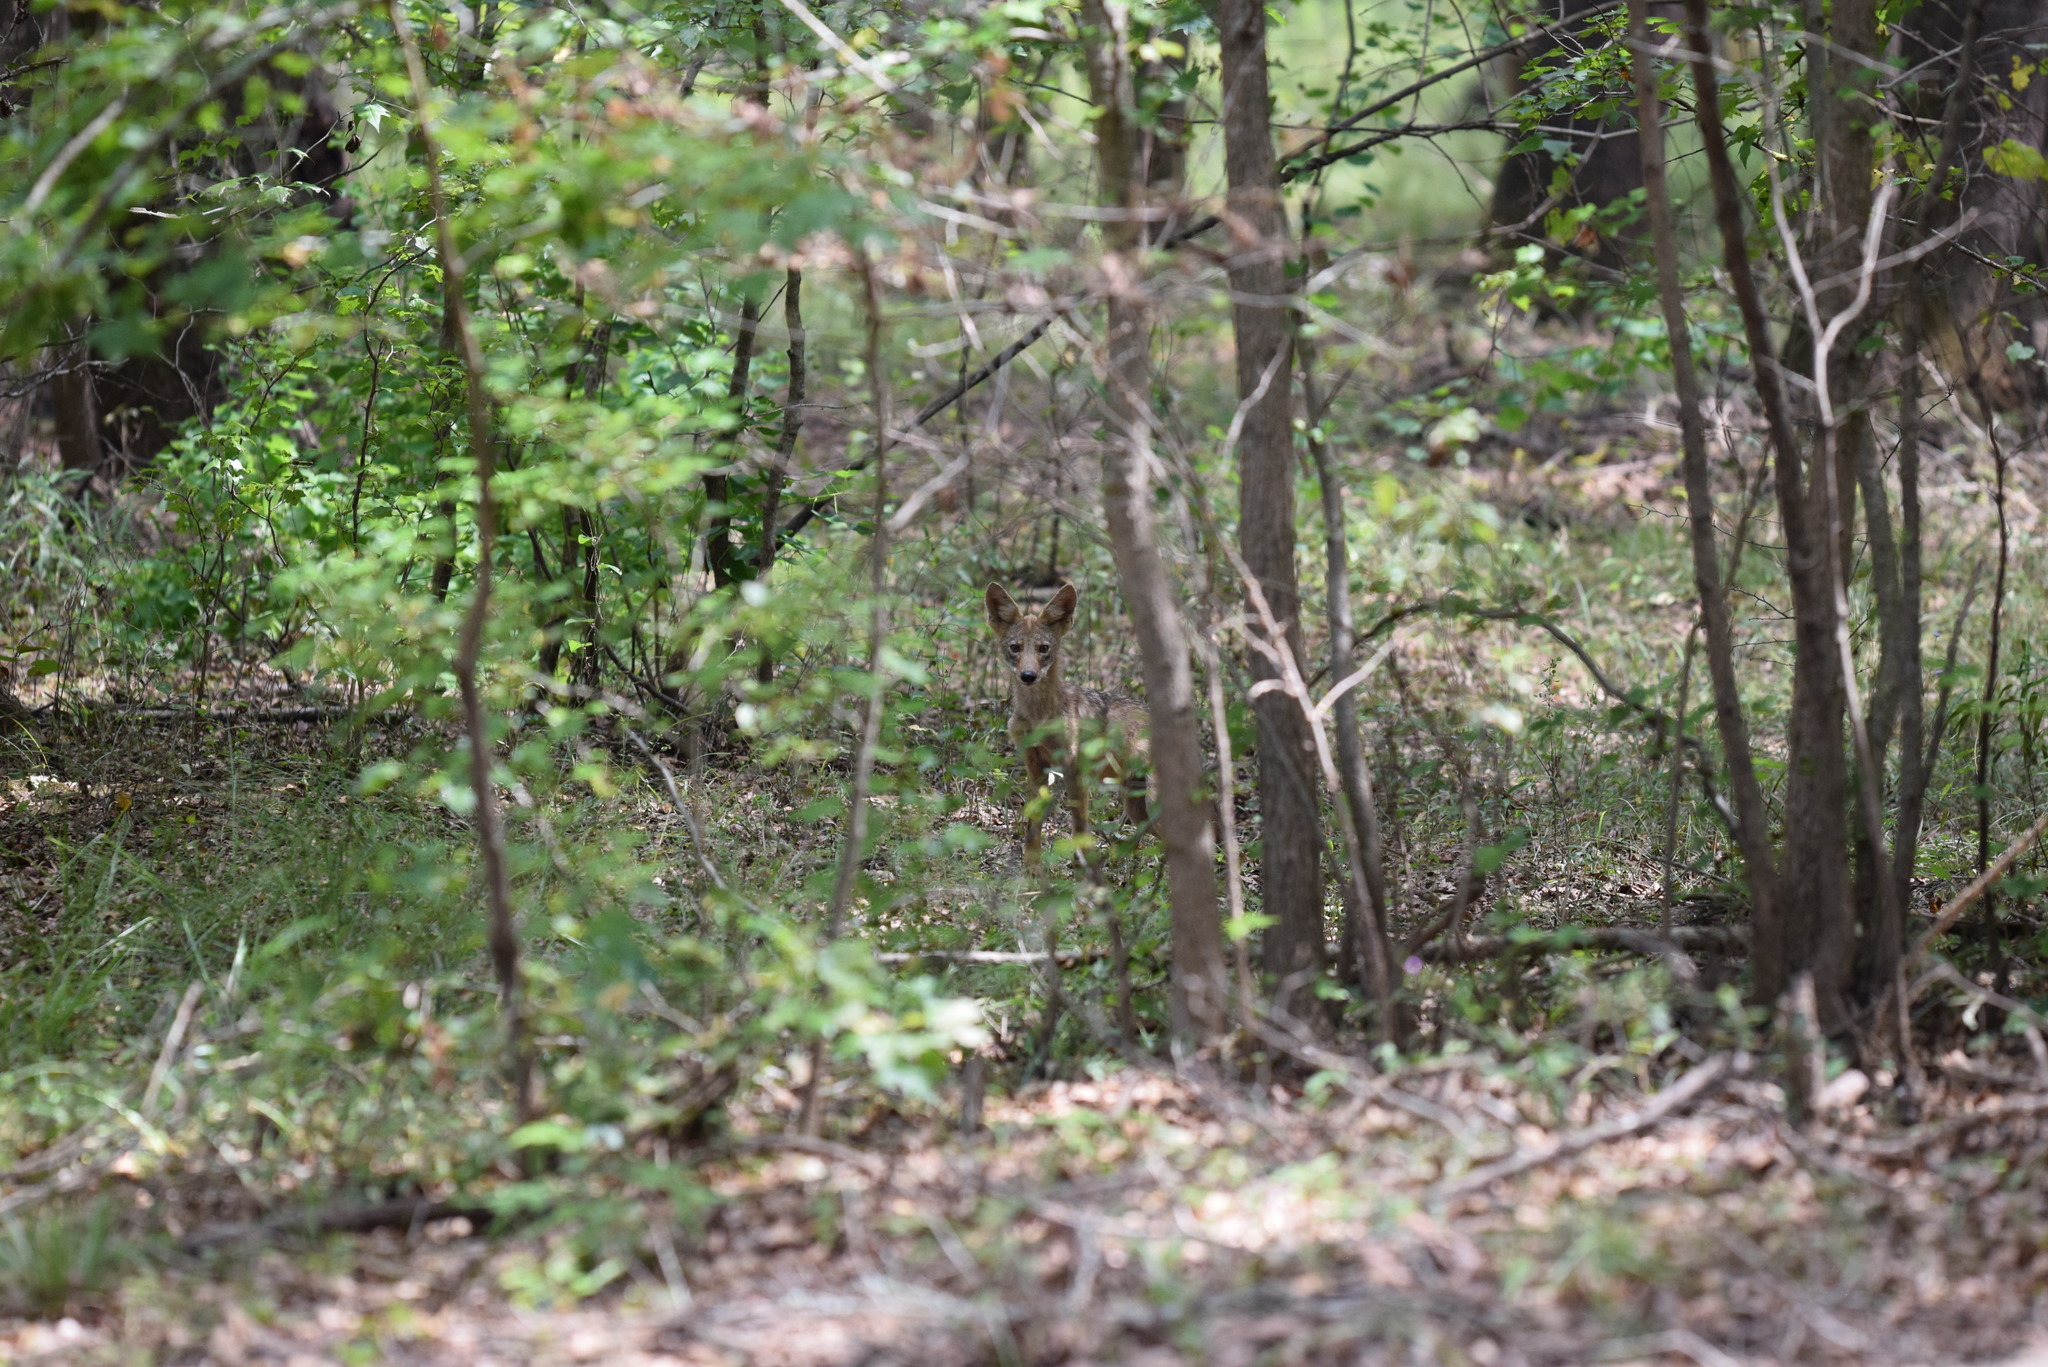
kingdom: Animalia
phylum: Chordata
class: Mammalia
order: Carnivora
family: Canidae
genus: Canis
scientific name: Canis latrans
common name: Coyote
